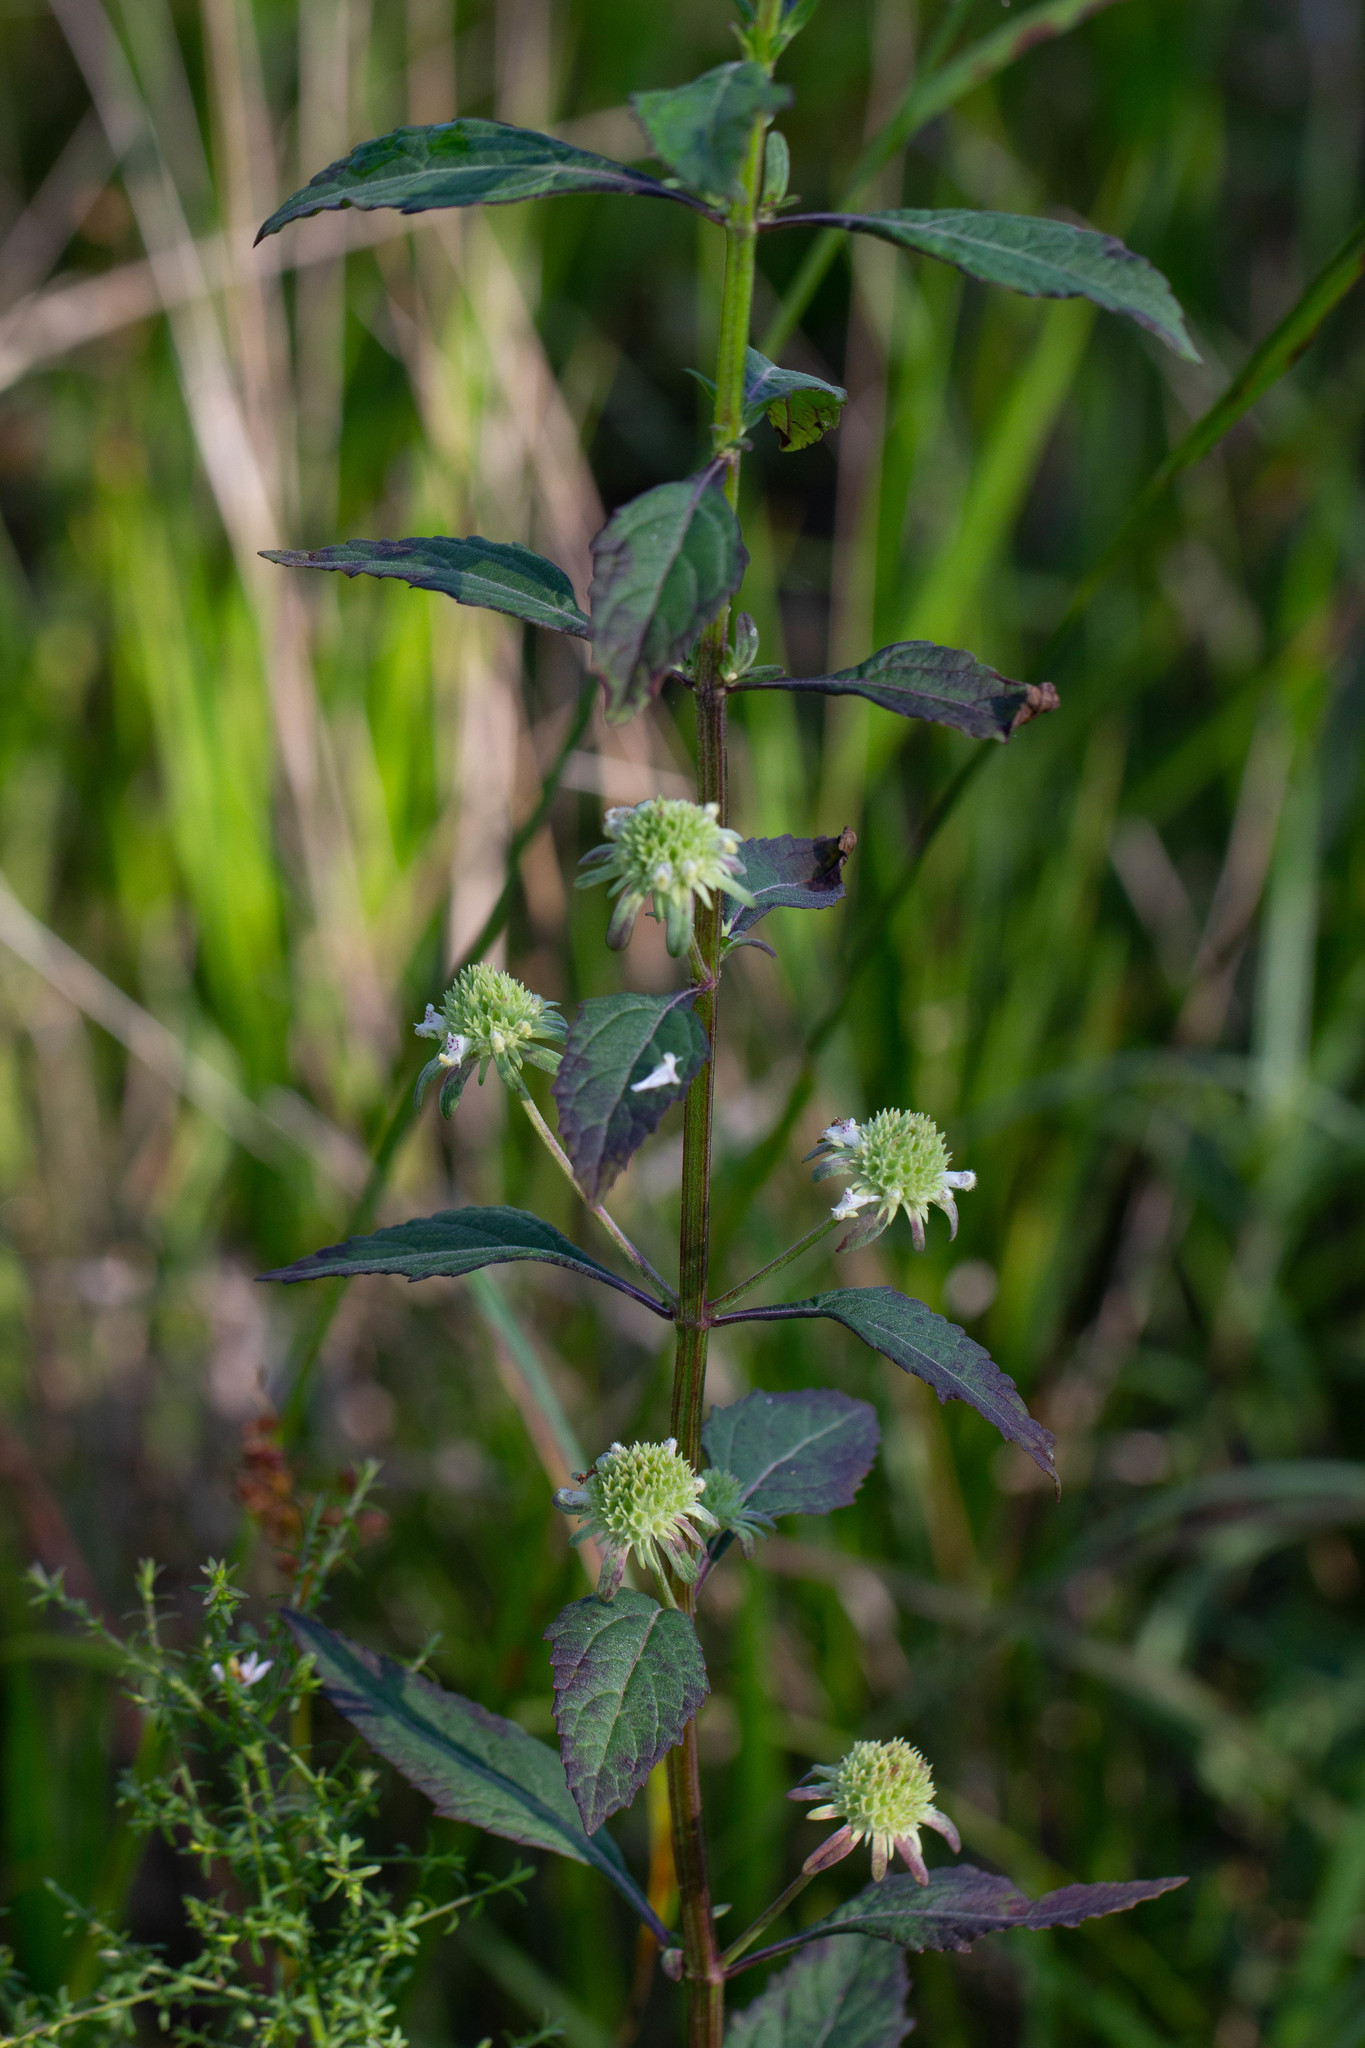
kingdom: Plantae
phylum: Tracheophyta
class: Magnoliopsida
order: Lamiales
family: Lamiaceae
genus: Hyptis
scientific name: Hyptis alata
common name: Cluster bush-mint
